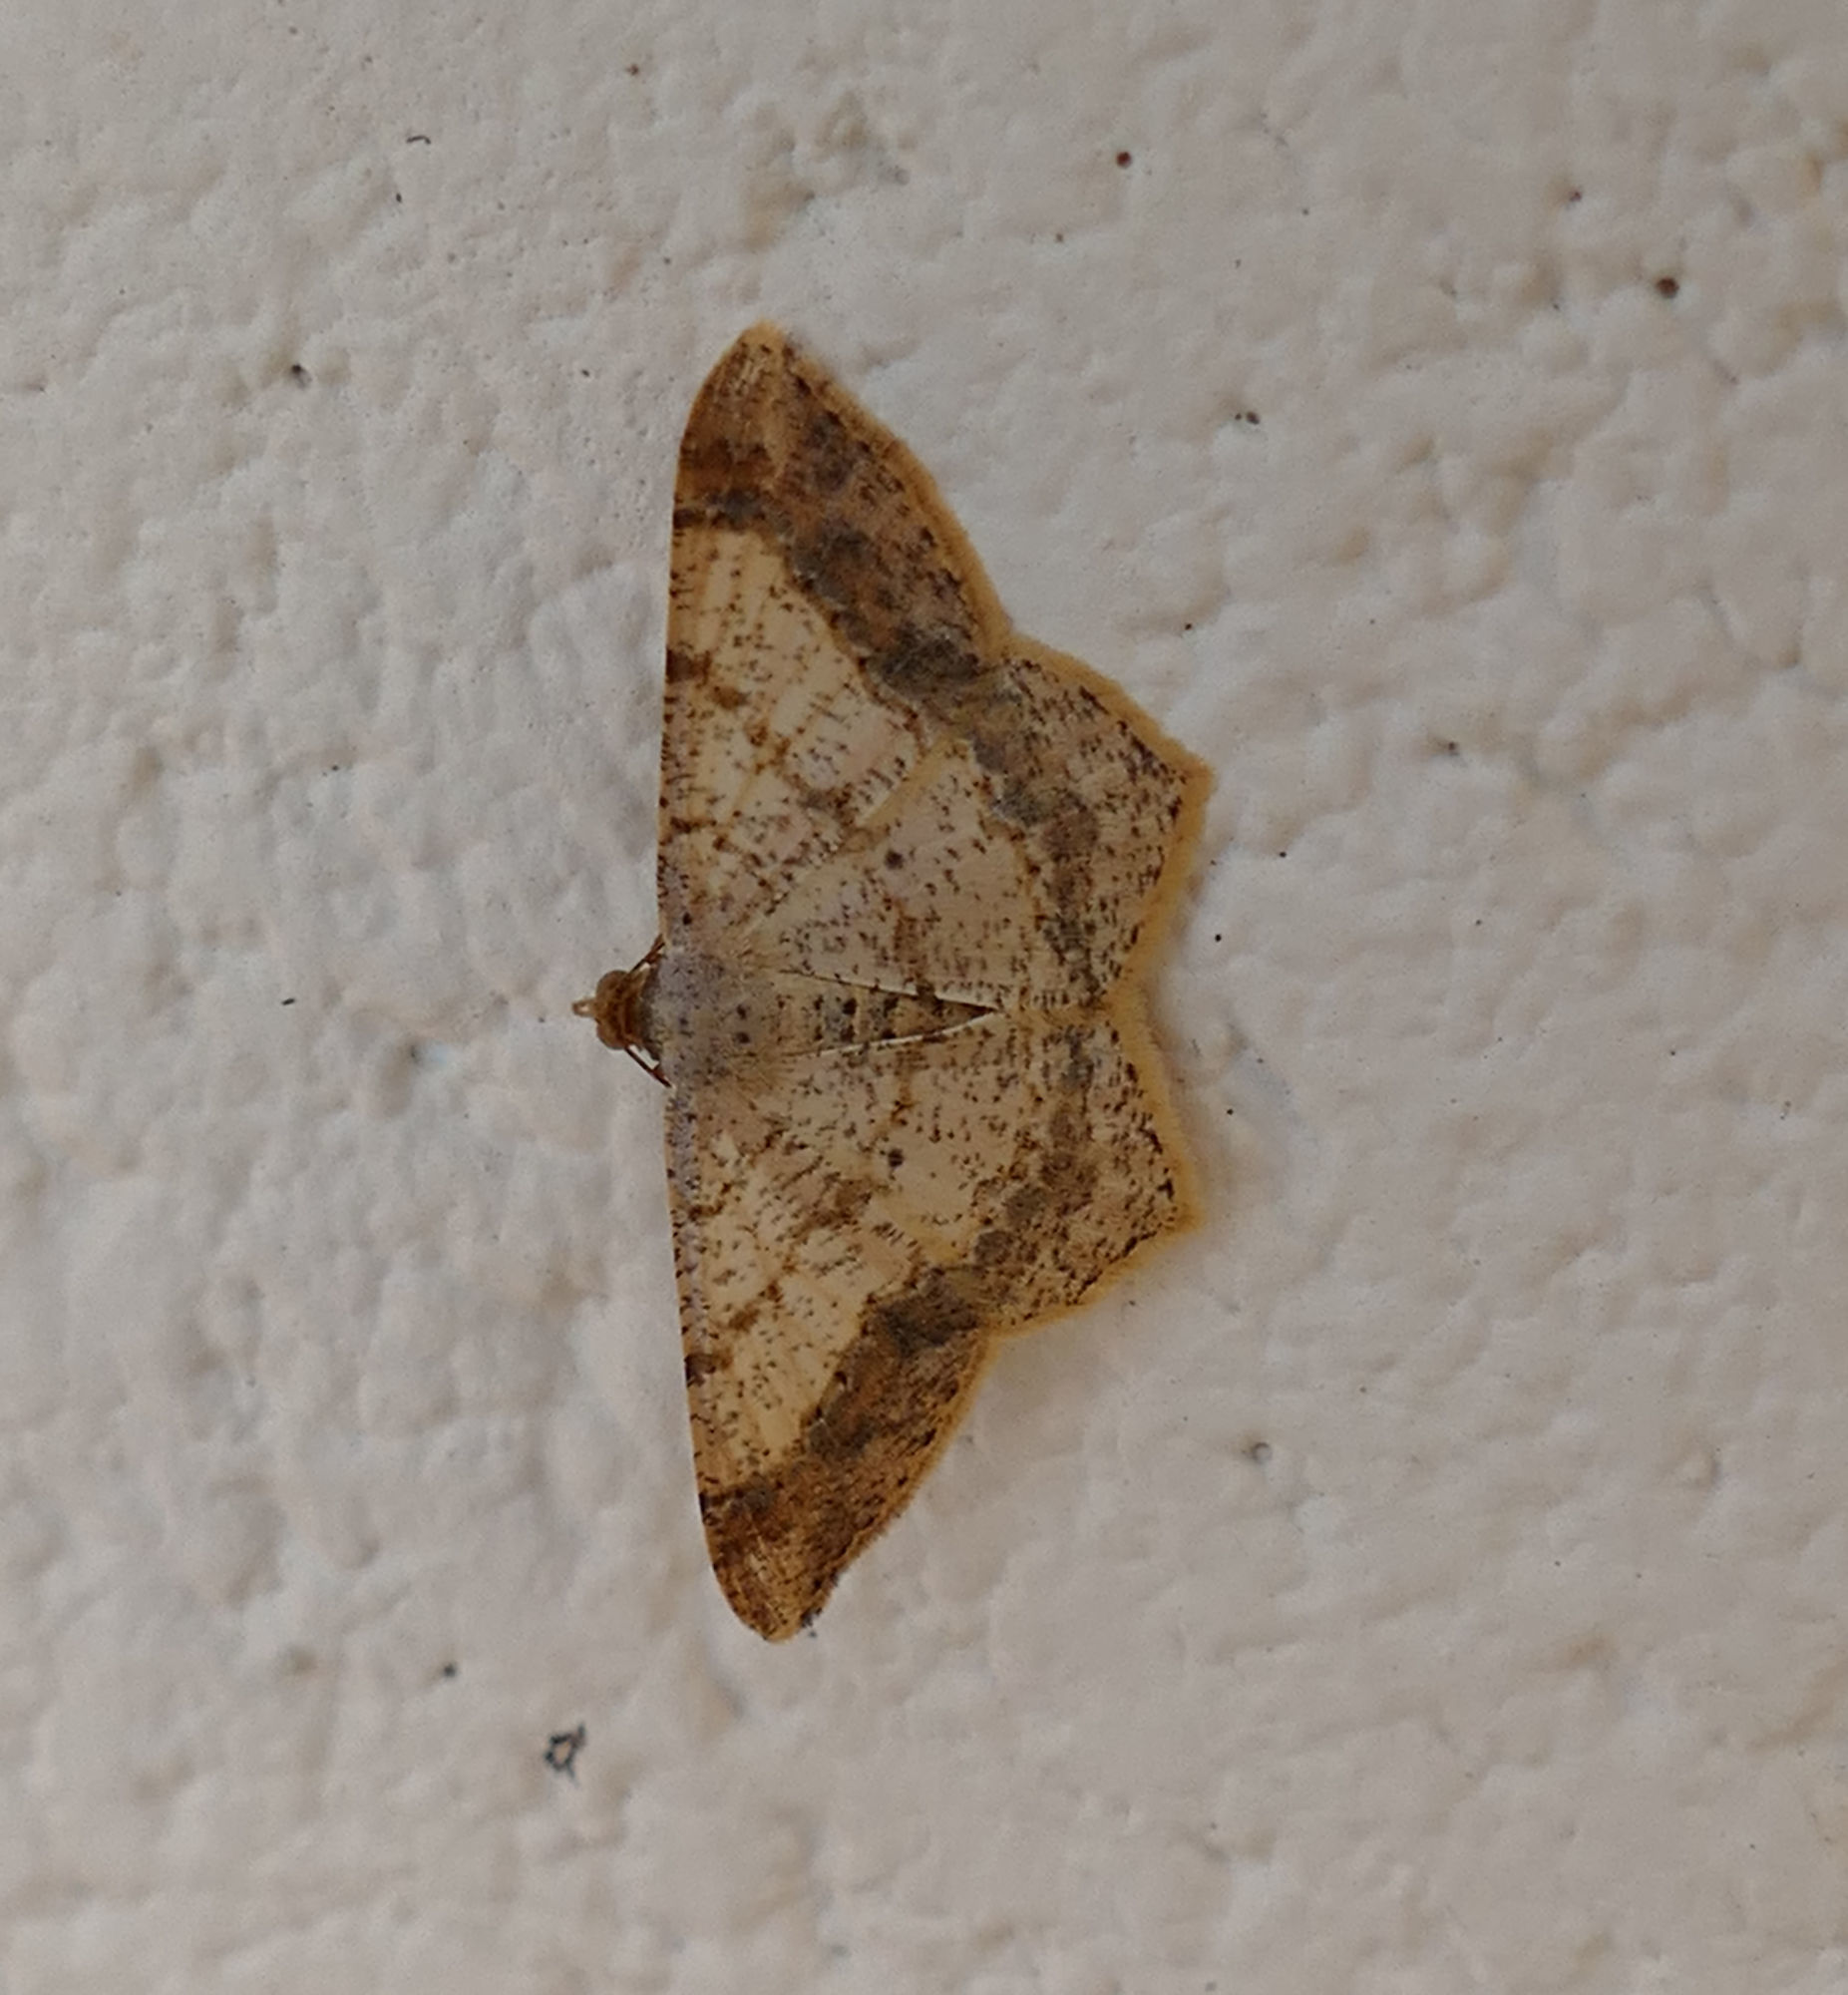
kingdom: Animalia
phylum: Arthropoda
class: Insecta
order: Lepidoptera
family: Geometridae
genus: Macaria
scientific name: Macaria abydata
